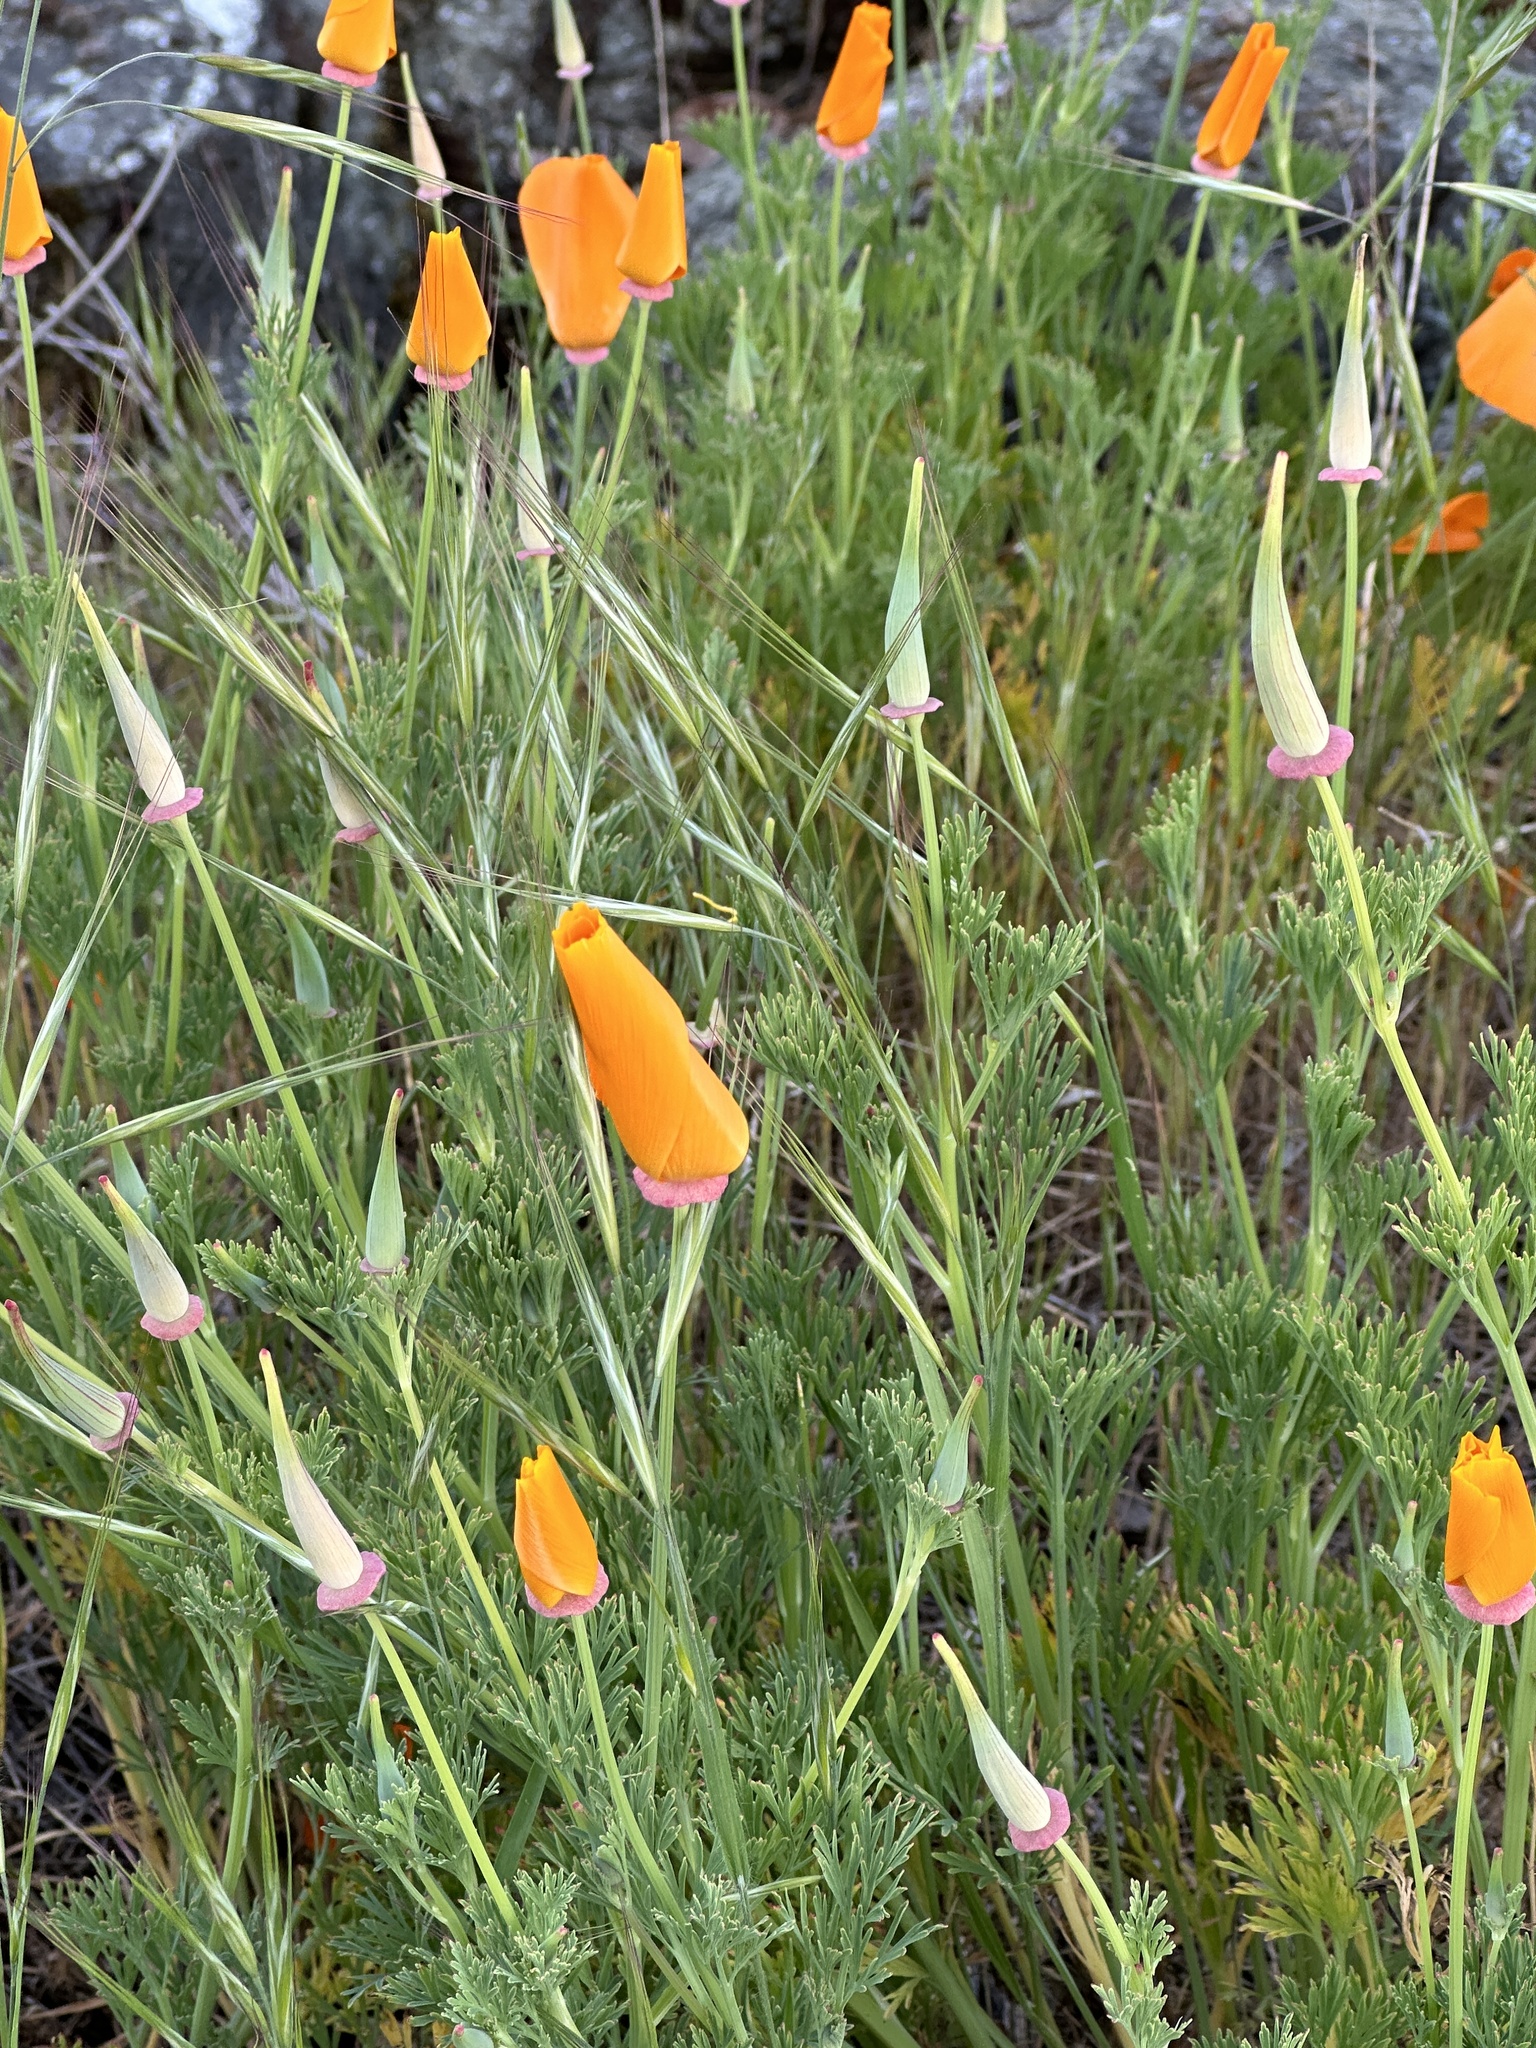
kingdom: Plantae
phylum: Tracheophyta
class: Magnoliopsida
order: Ranunculales
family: Papaveraceae
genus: Eschscholzia
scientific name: Eschscholzia californica
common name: California poppy
